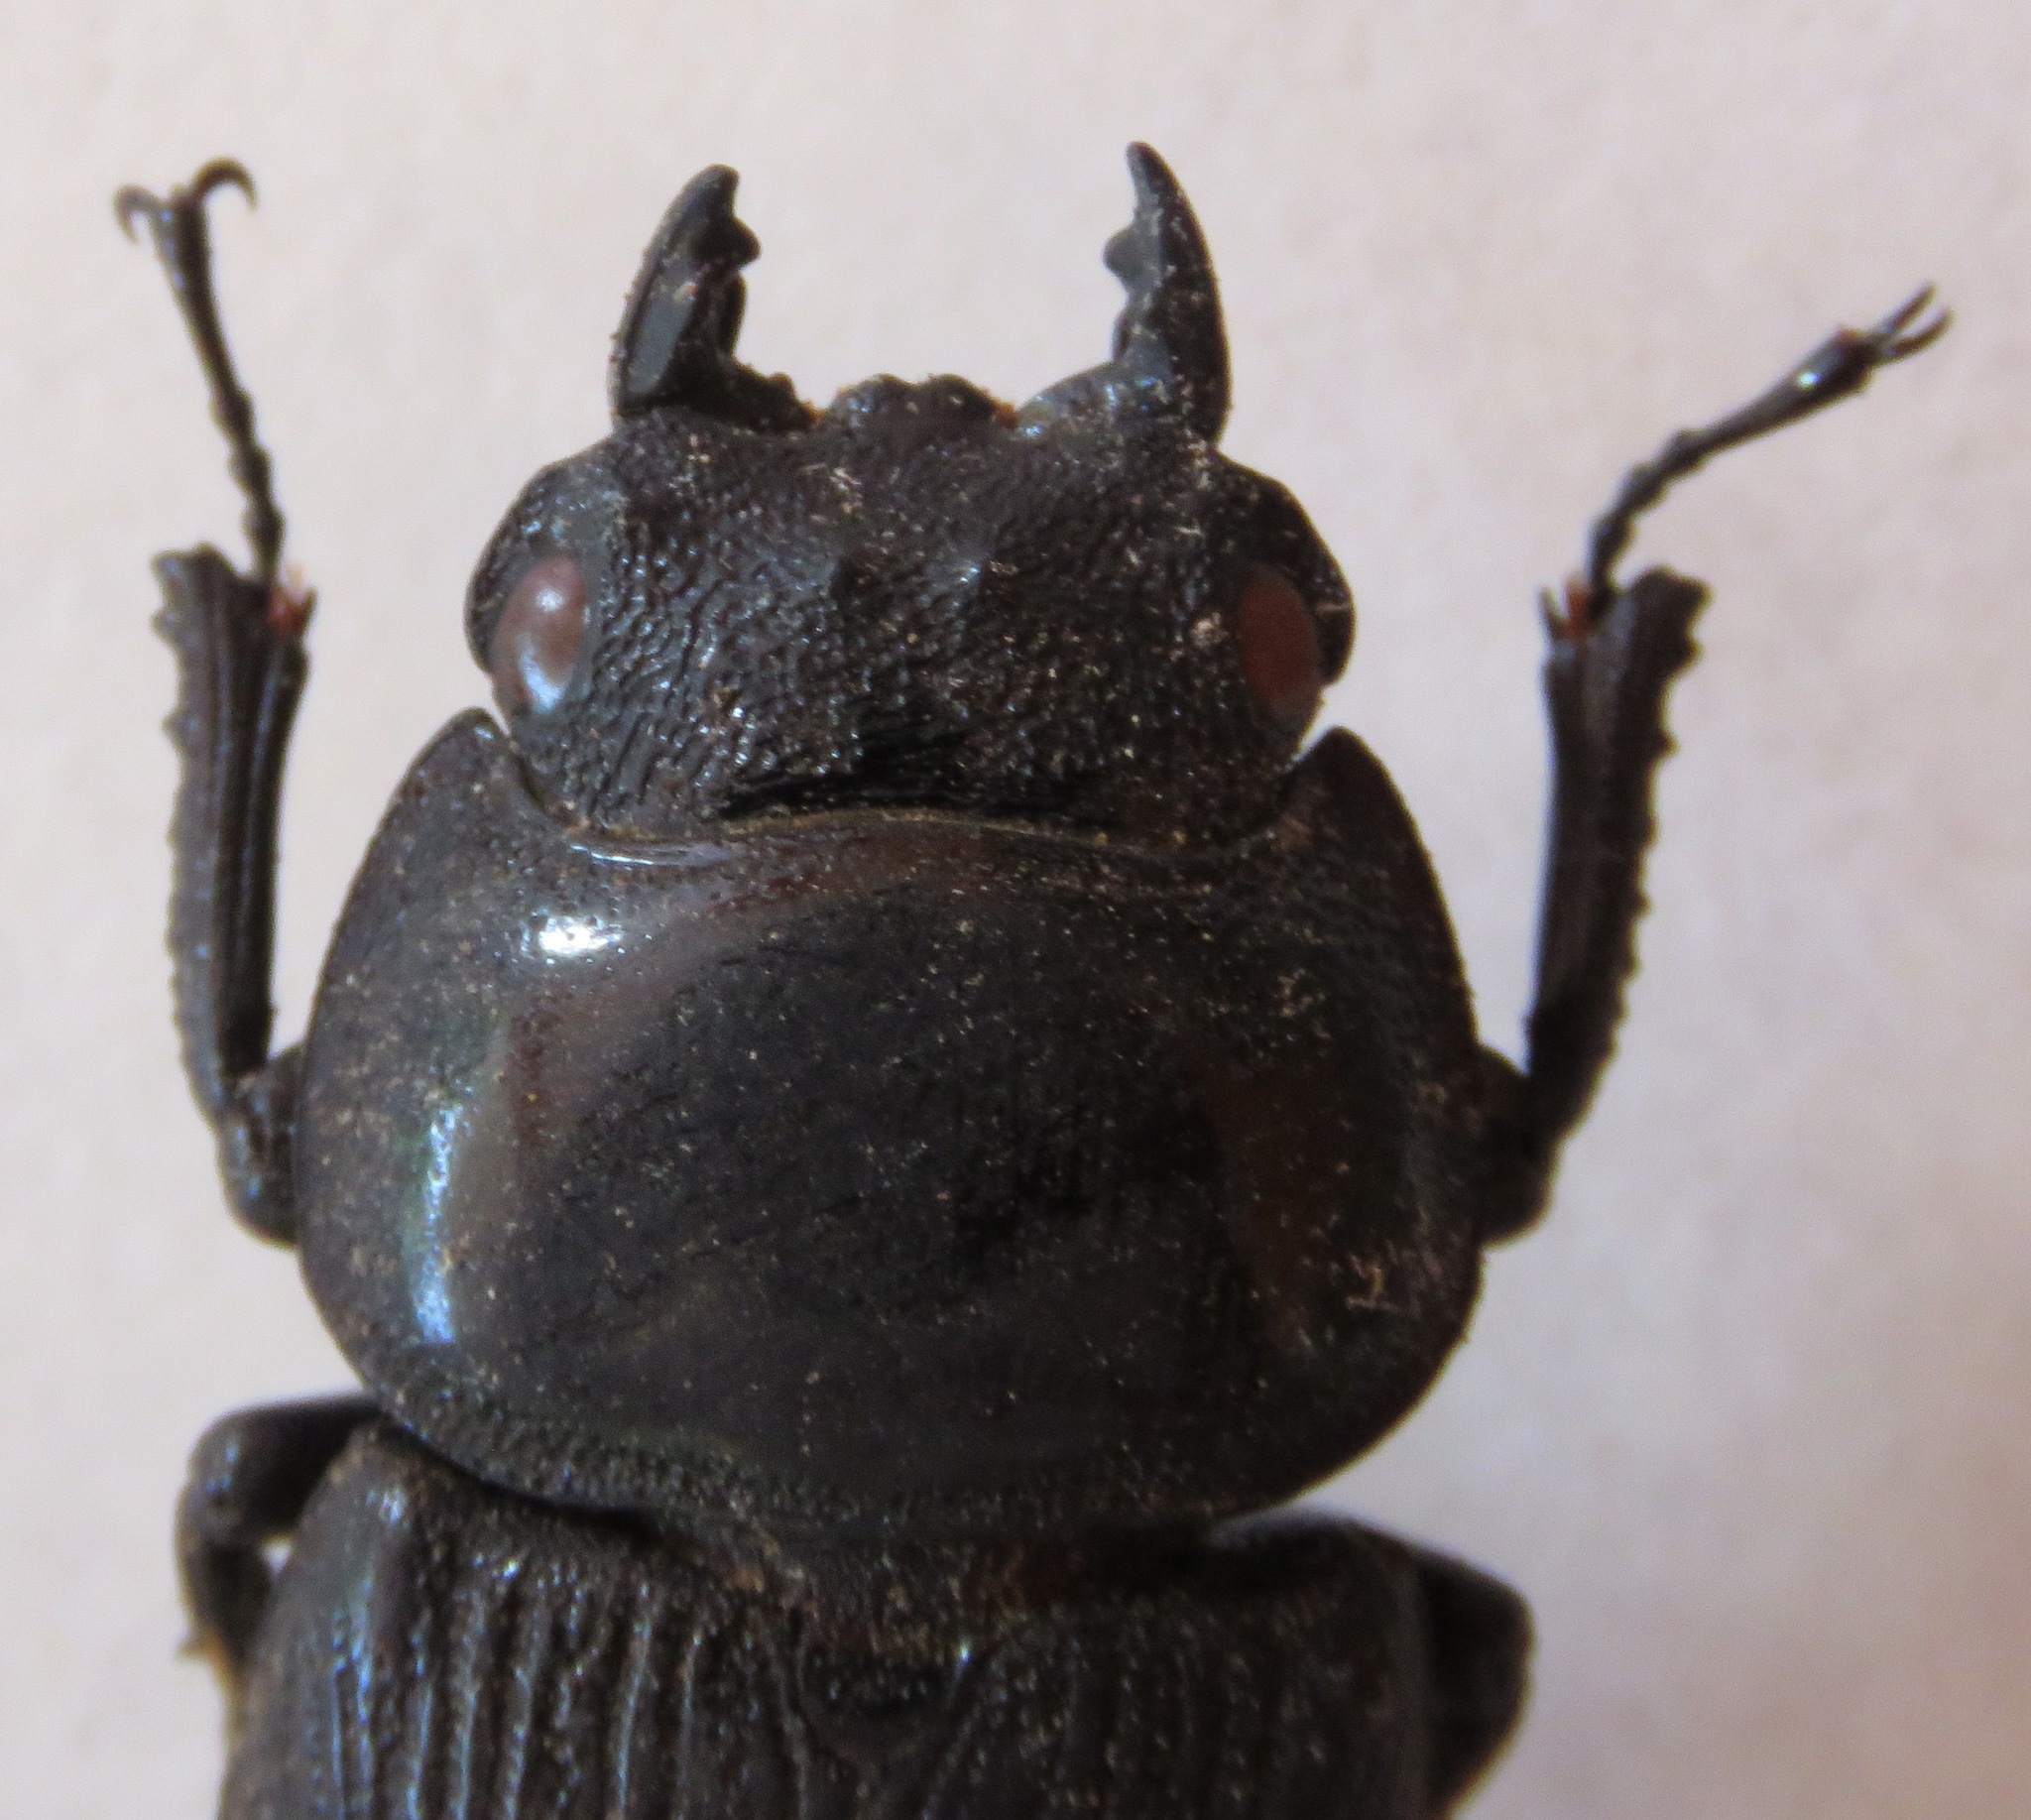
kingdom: Animalia
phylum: Arthropoda
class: Insecta
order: Coleoptera
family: Lucanidae
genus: Dorcus
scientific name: Dorcus curvidens
